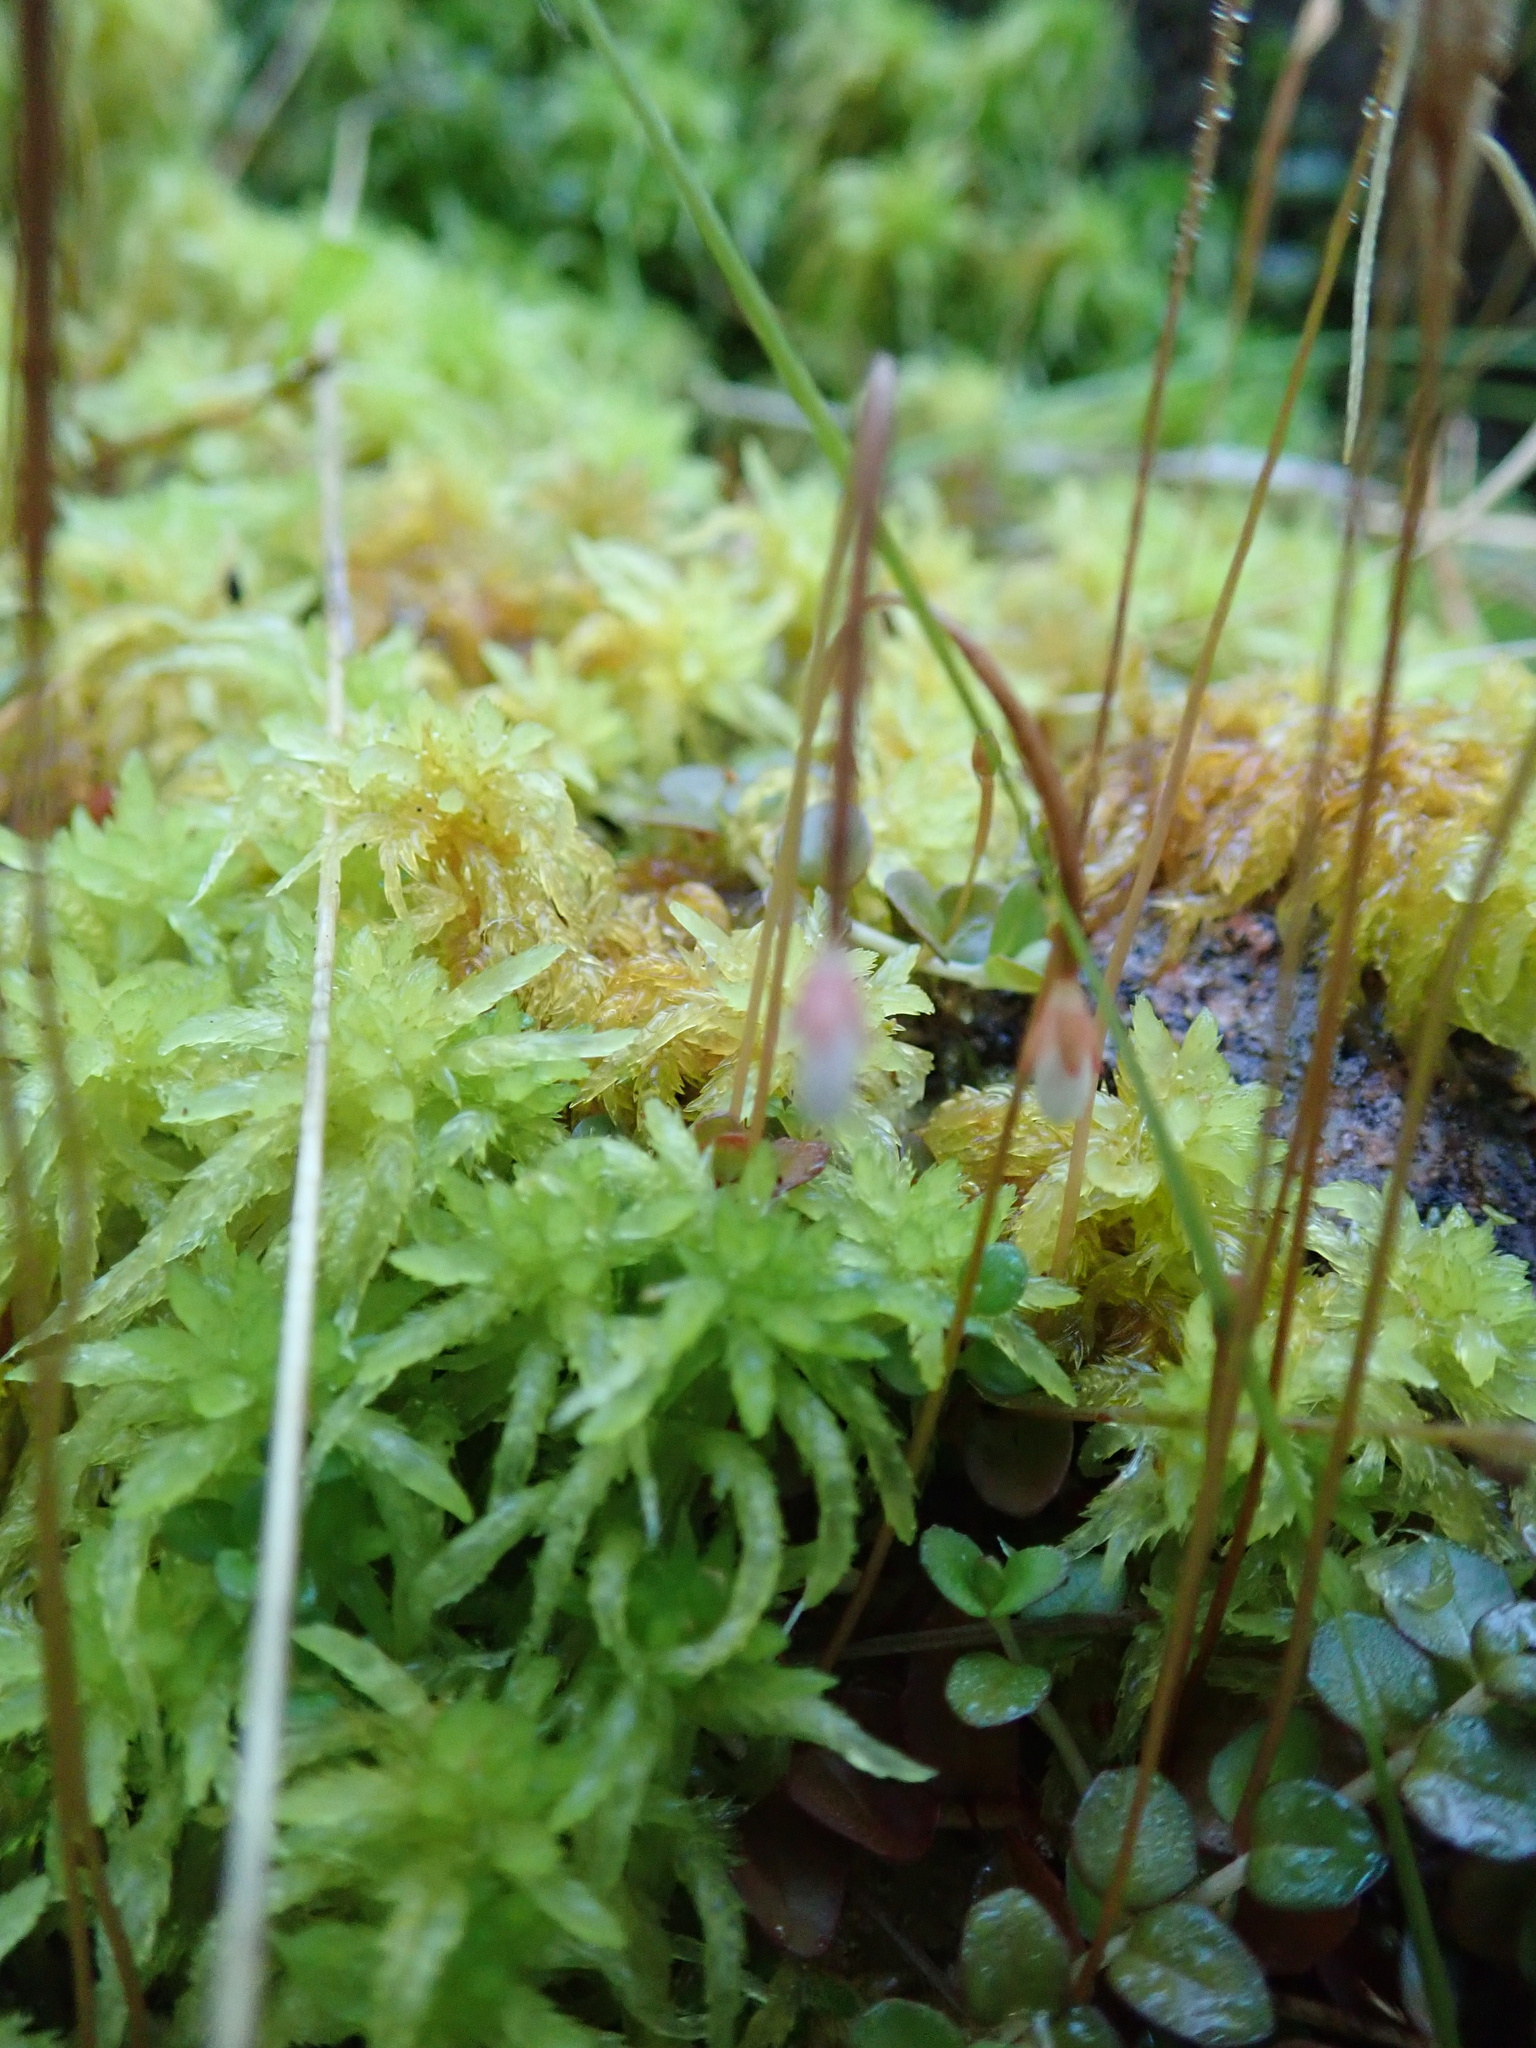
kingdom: Plantae
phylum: Tracheophyta
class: Magnoliopsida
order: Myrtales
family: Onagraceae
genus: Epilobium
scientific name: Epilobium brunnescens
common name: New zealand willowherb
